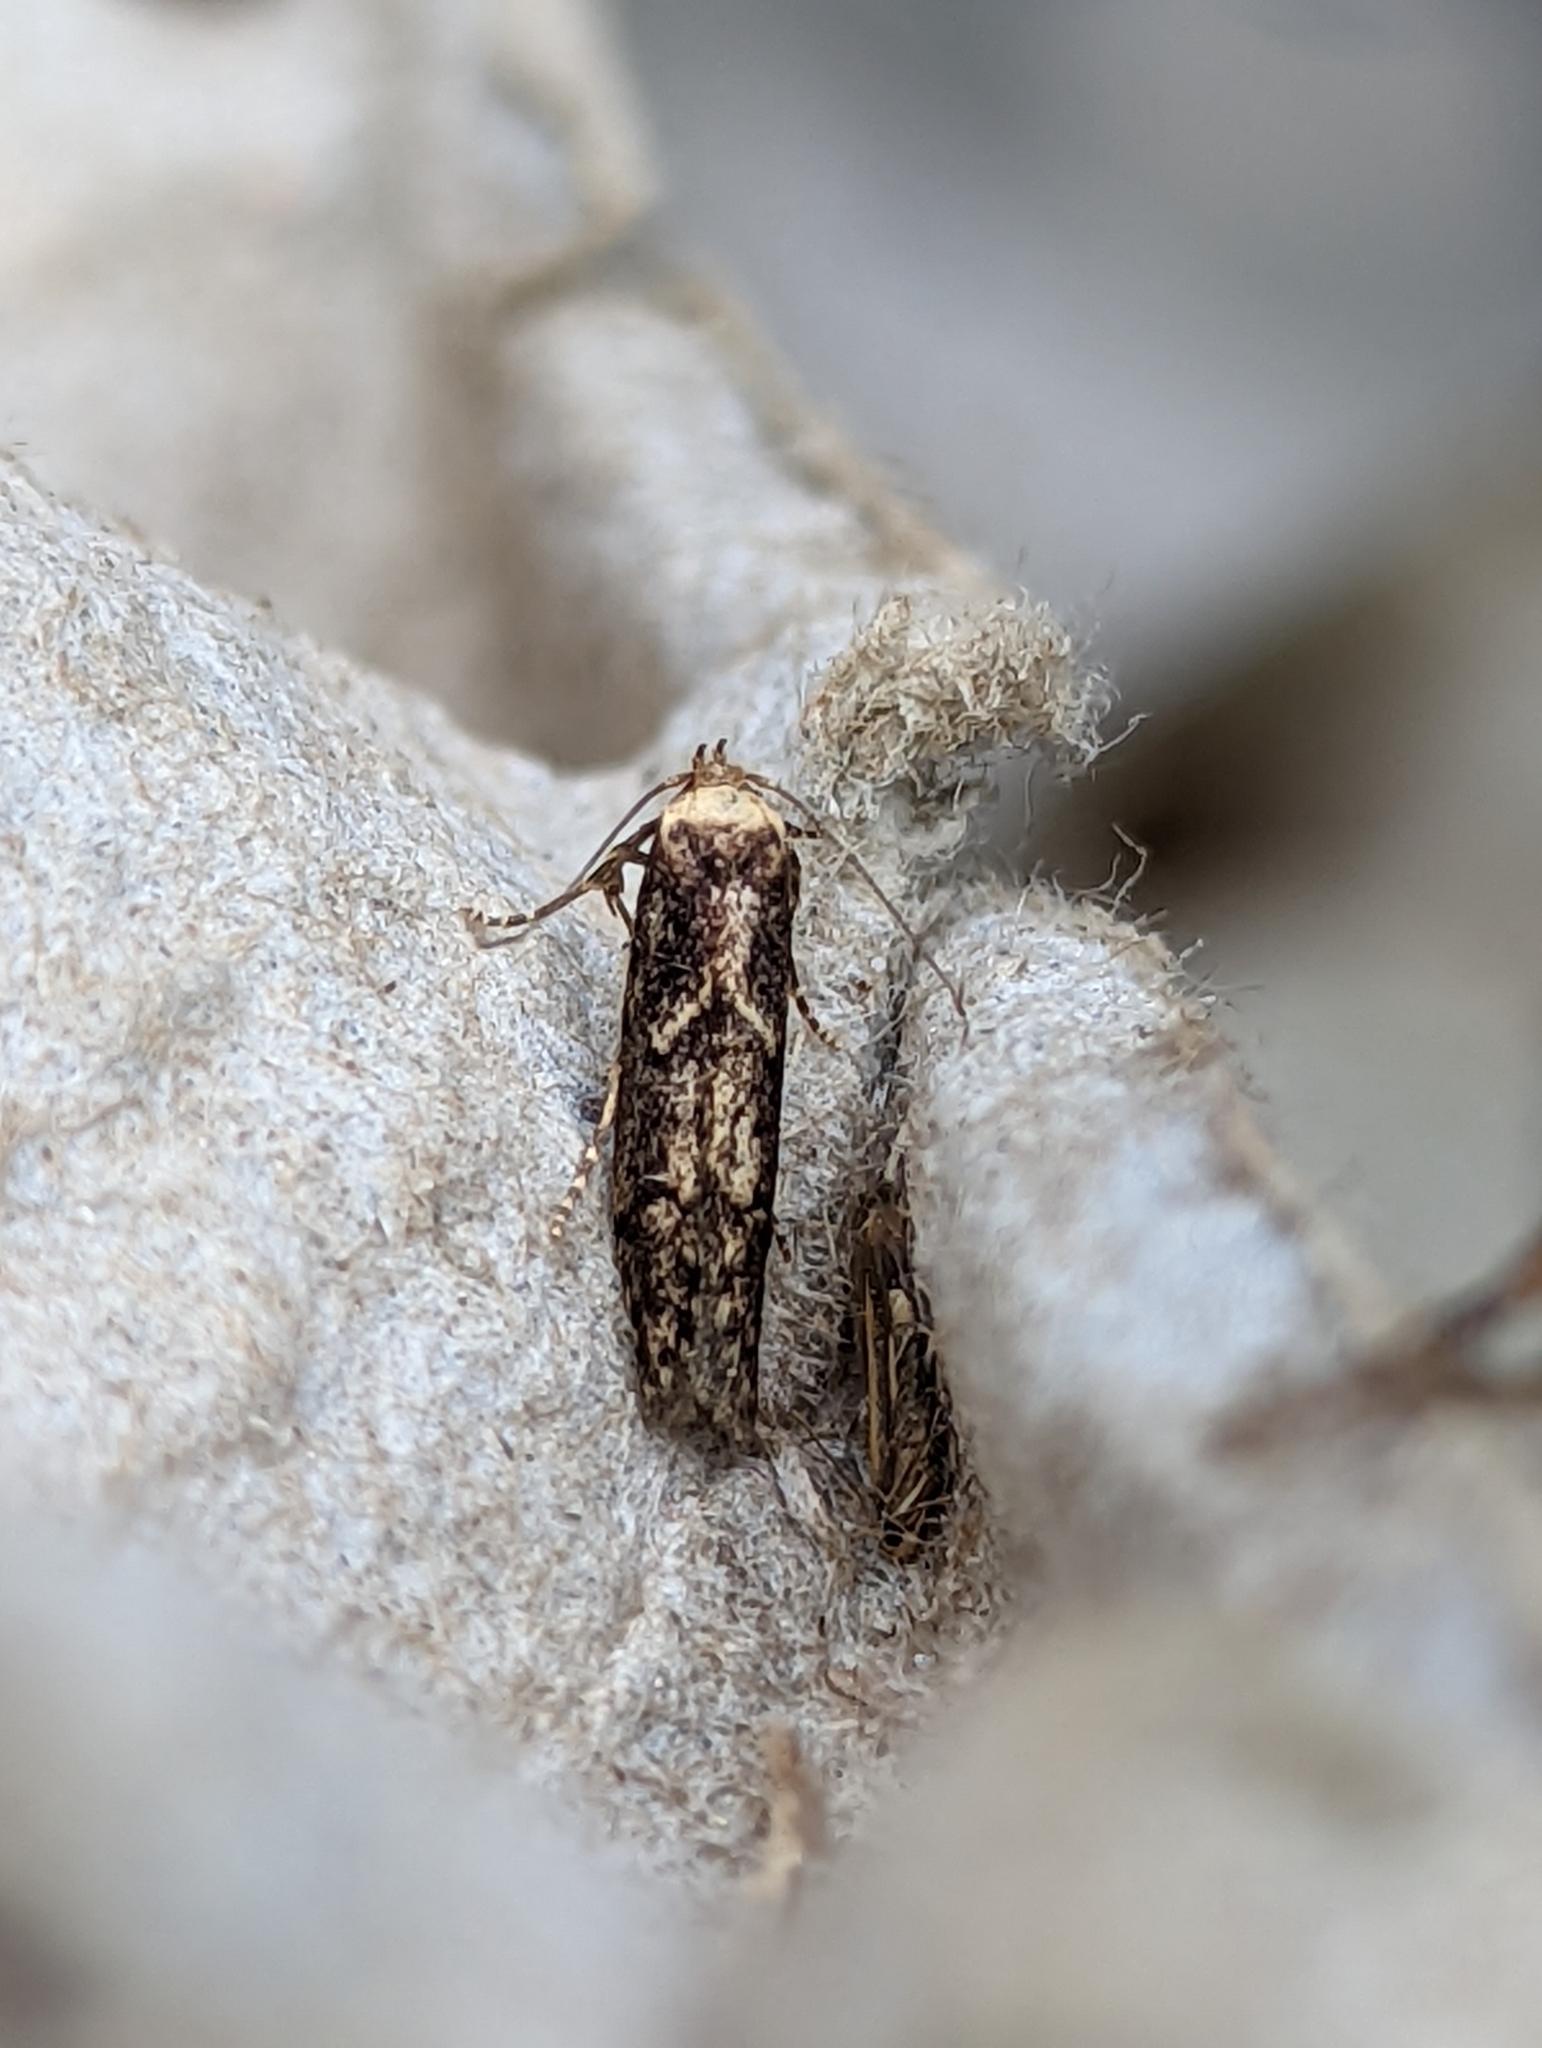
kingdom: Animalia
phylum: Arthropoda
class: Insecta
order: Lepidoptera
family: Blastobasidae
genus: Blastobasis
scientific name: Blastobasis adustella
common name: Dingy dowd
